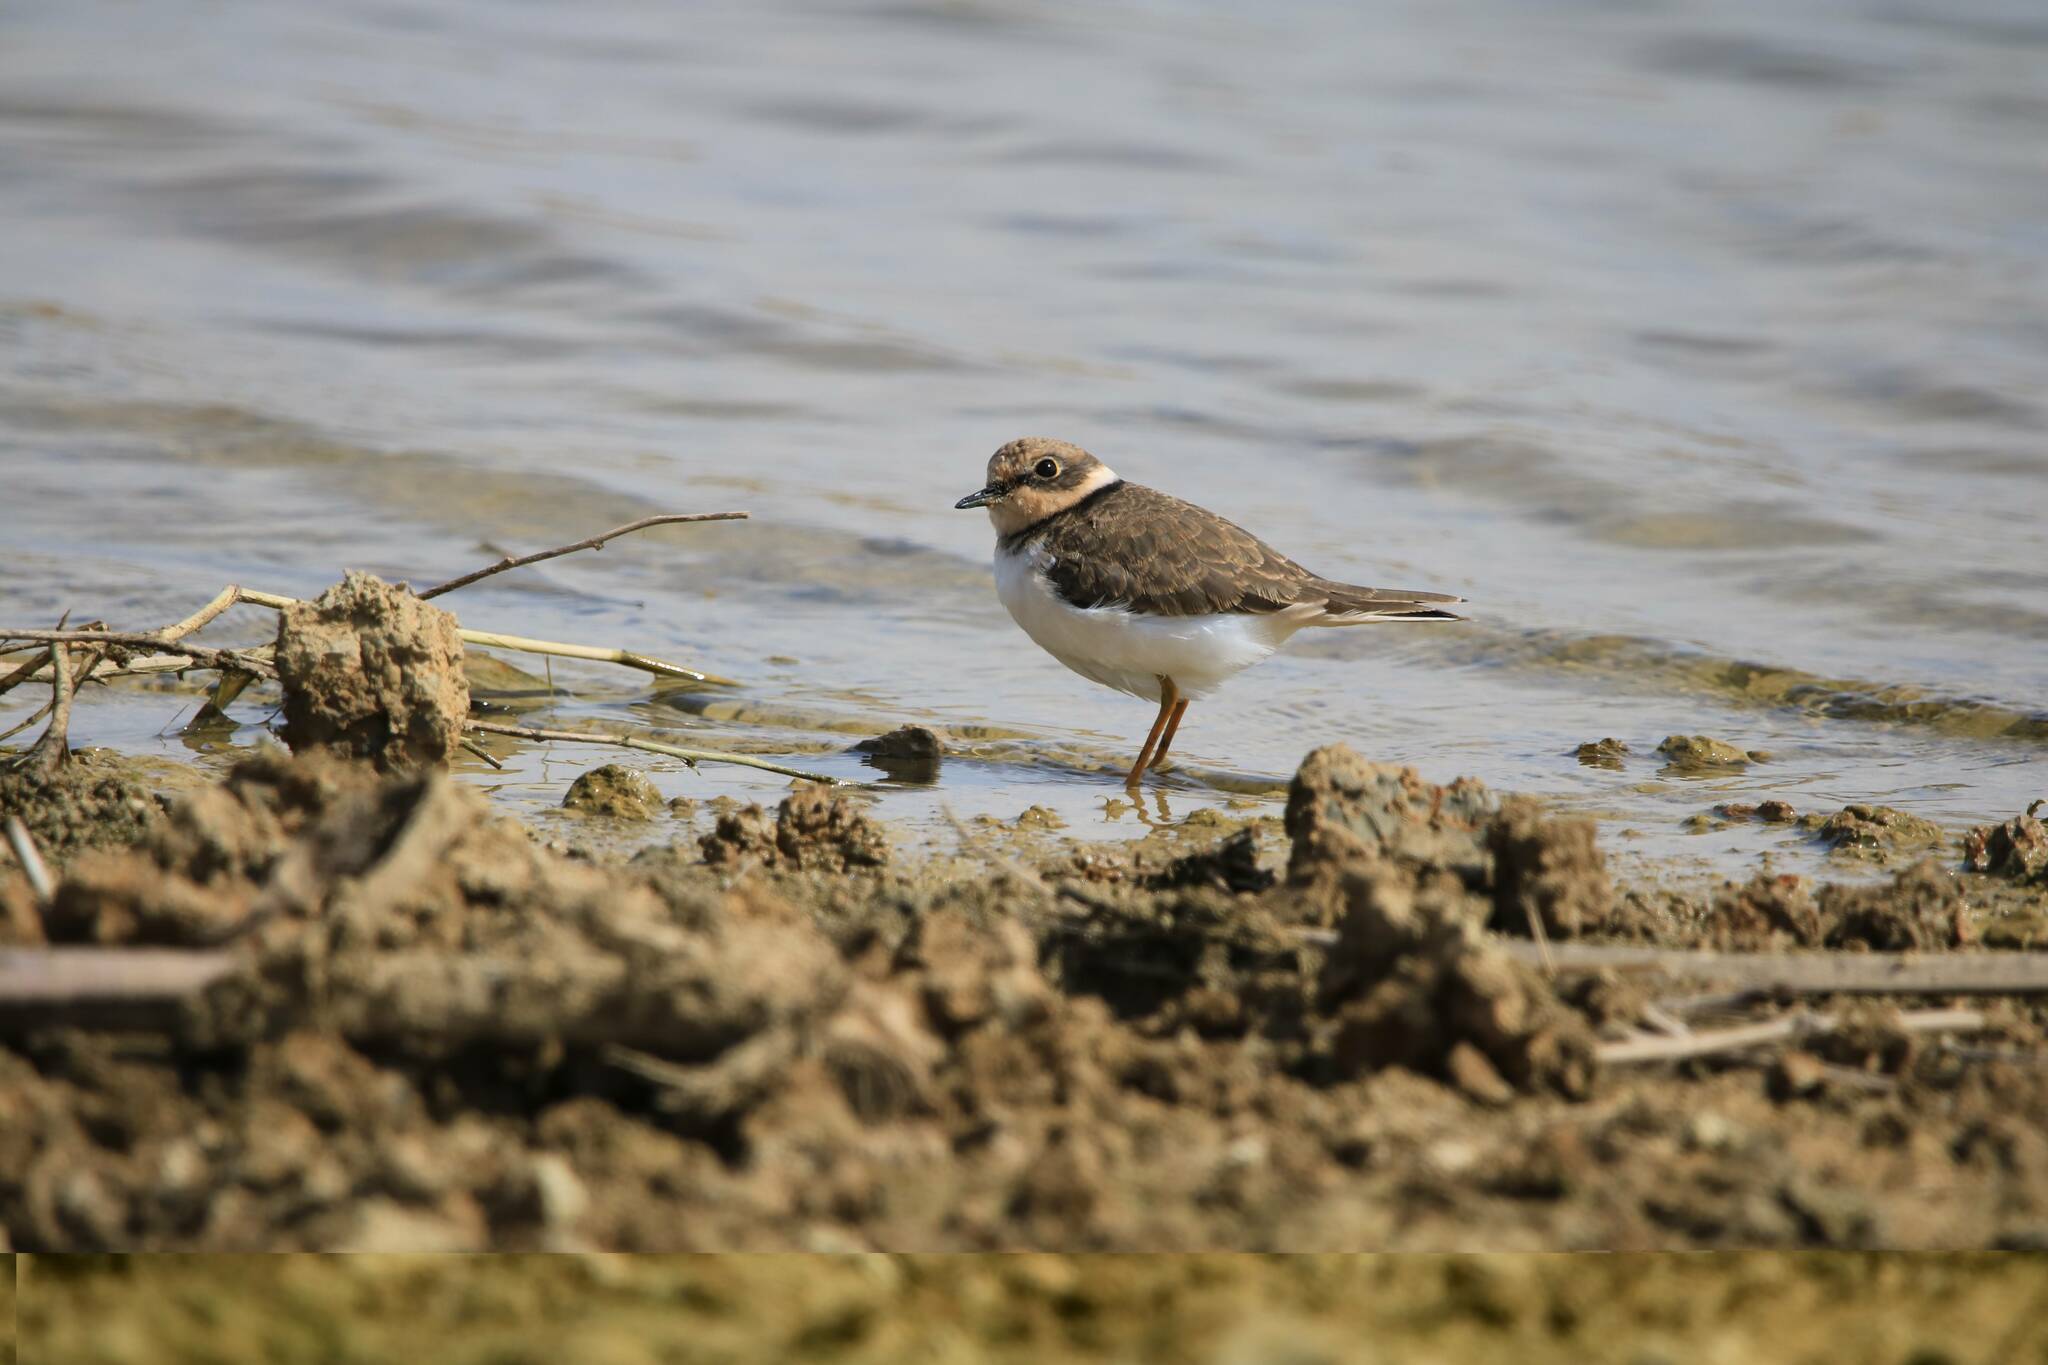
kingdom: Animalia
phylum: Chordata
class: Aves
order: Charadriiformes
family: Charadriidae
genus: Charadrius
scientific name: Charadrius dubius
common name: Little ringed plover
